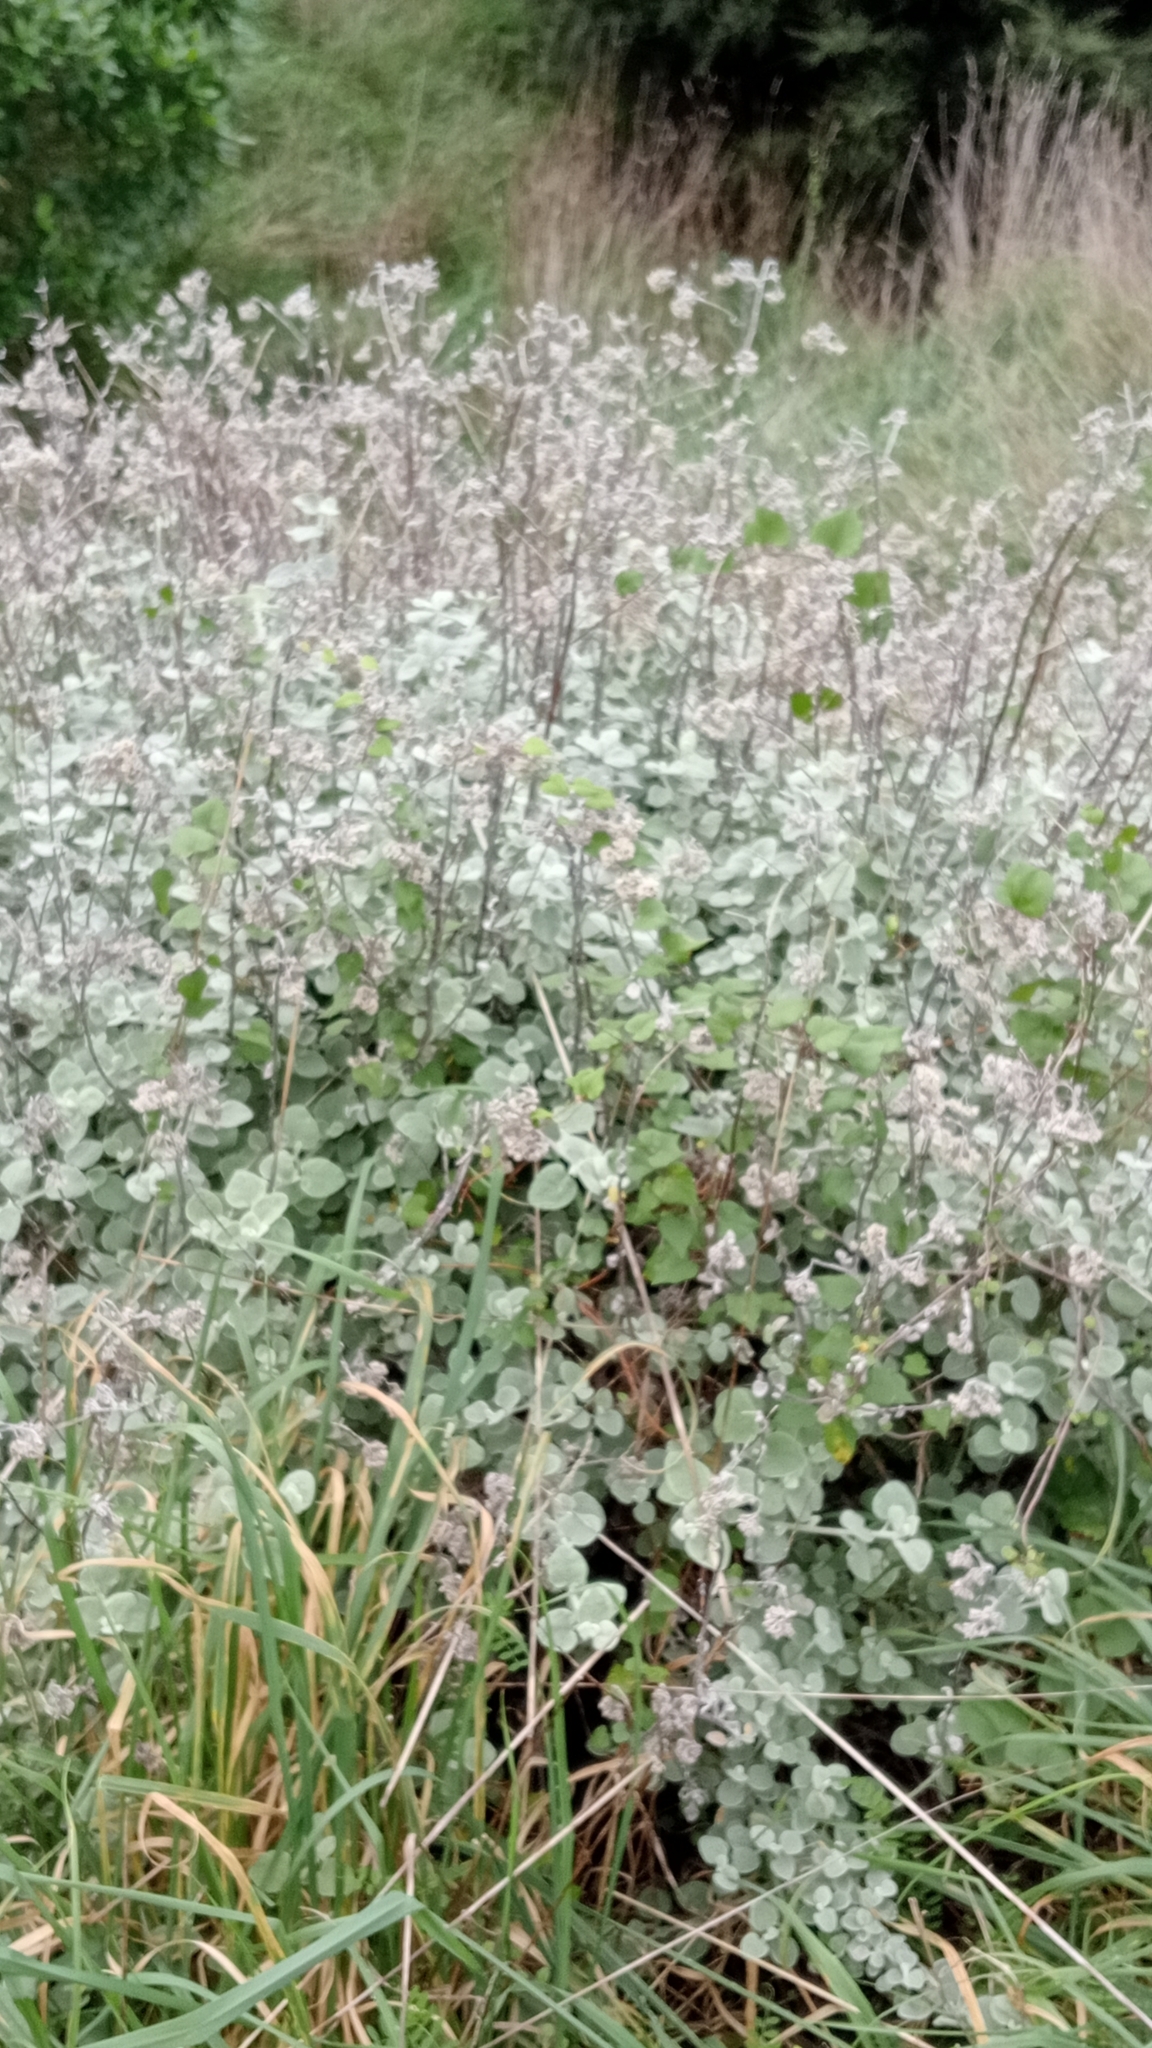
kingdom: Plantae
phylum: Tracheophyta
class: Magnoliopsida
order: Asterales
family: Asteraceae
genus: Helichrysum
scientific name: Helichrysum petiolare
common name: Licorice-plant
